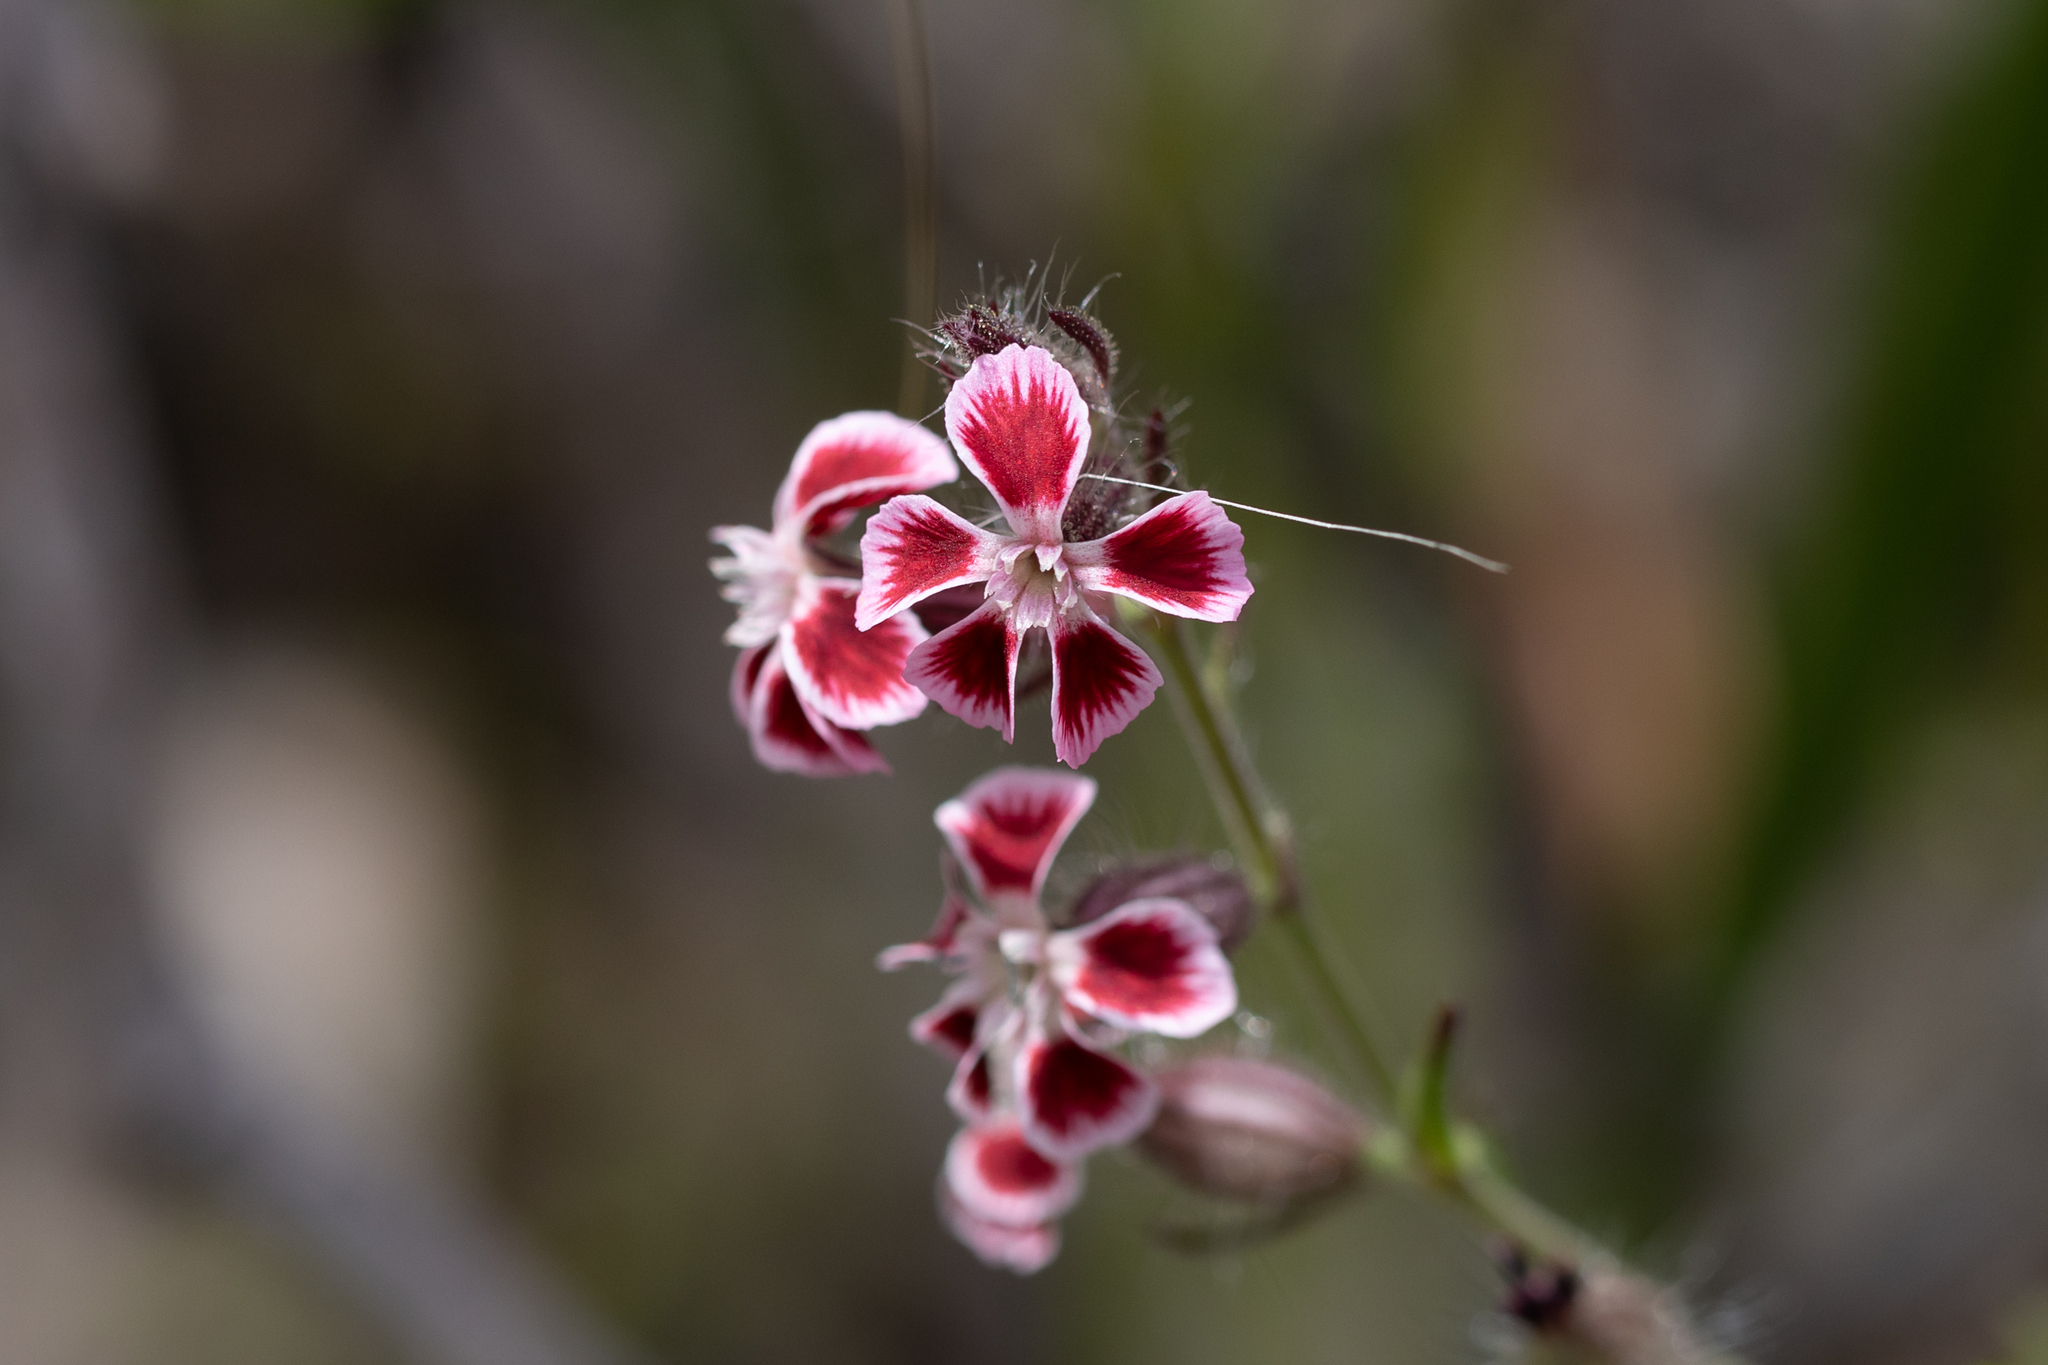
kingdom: Plantae
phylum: Tracheophyta
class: Magnoliopsida
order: Caryophyllales
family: Caryophyllaceae
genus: Silene
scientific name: Silene gallica
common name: Small-flowered catchfly
